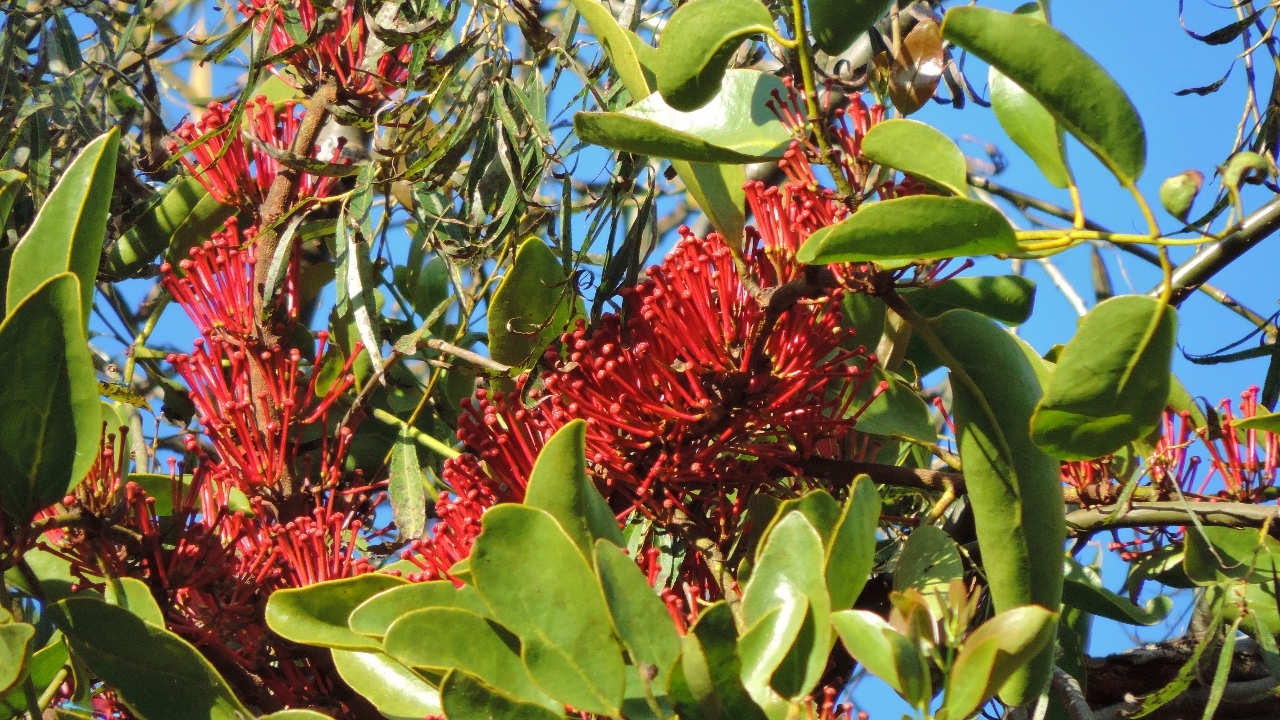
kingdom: Plantae
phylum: Tracheophyta
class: Magnoliopsida
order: Santalales
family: Loranthaceae
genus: Globimetula
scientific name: Globimetula mweroensis
